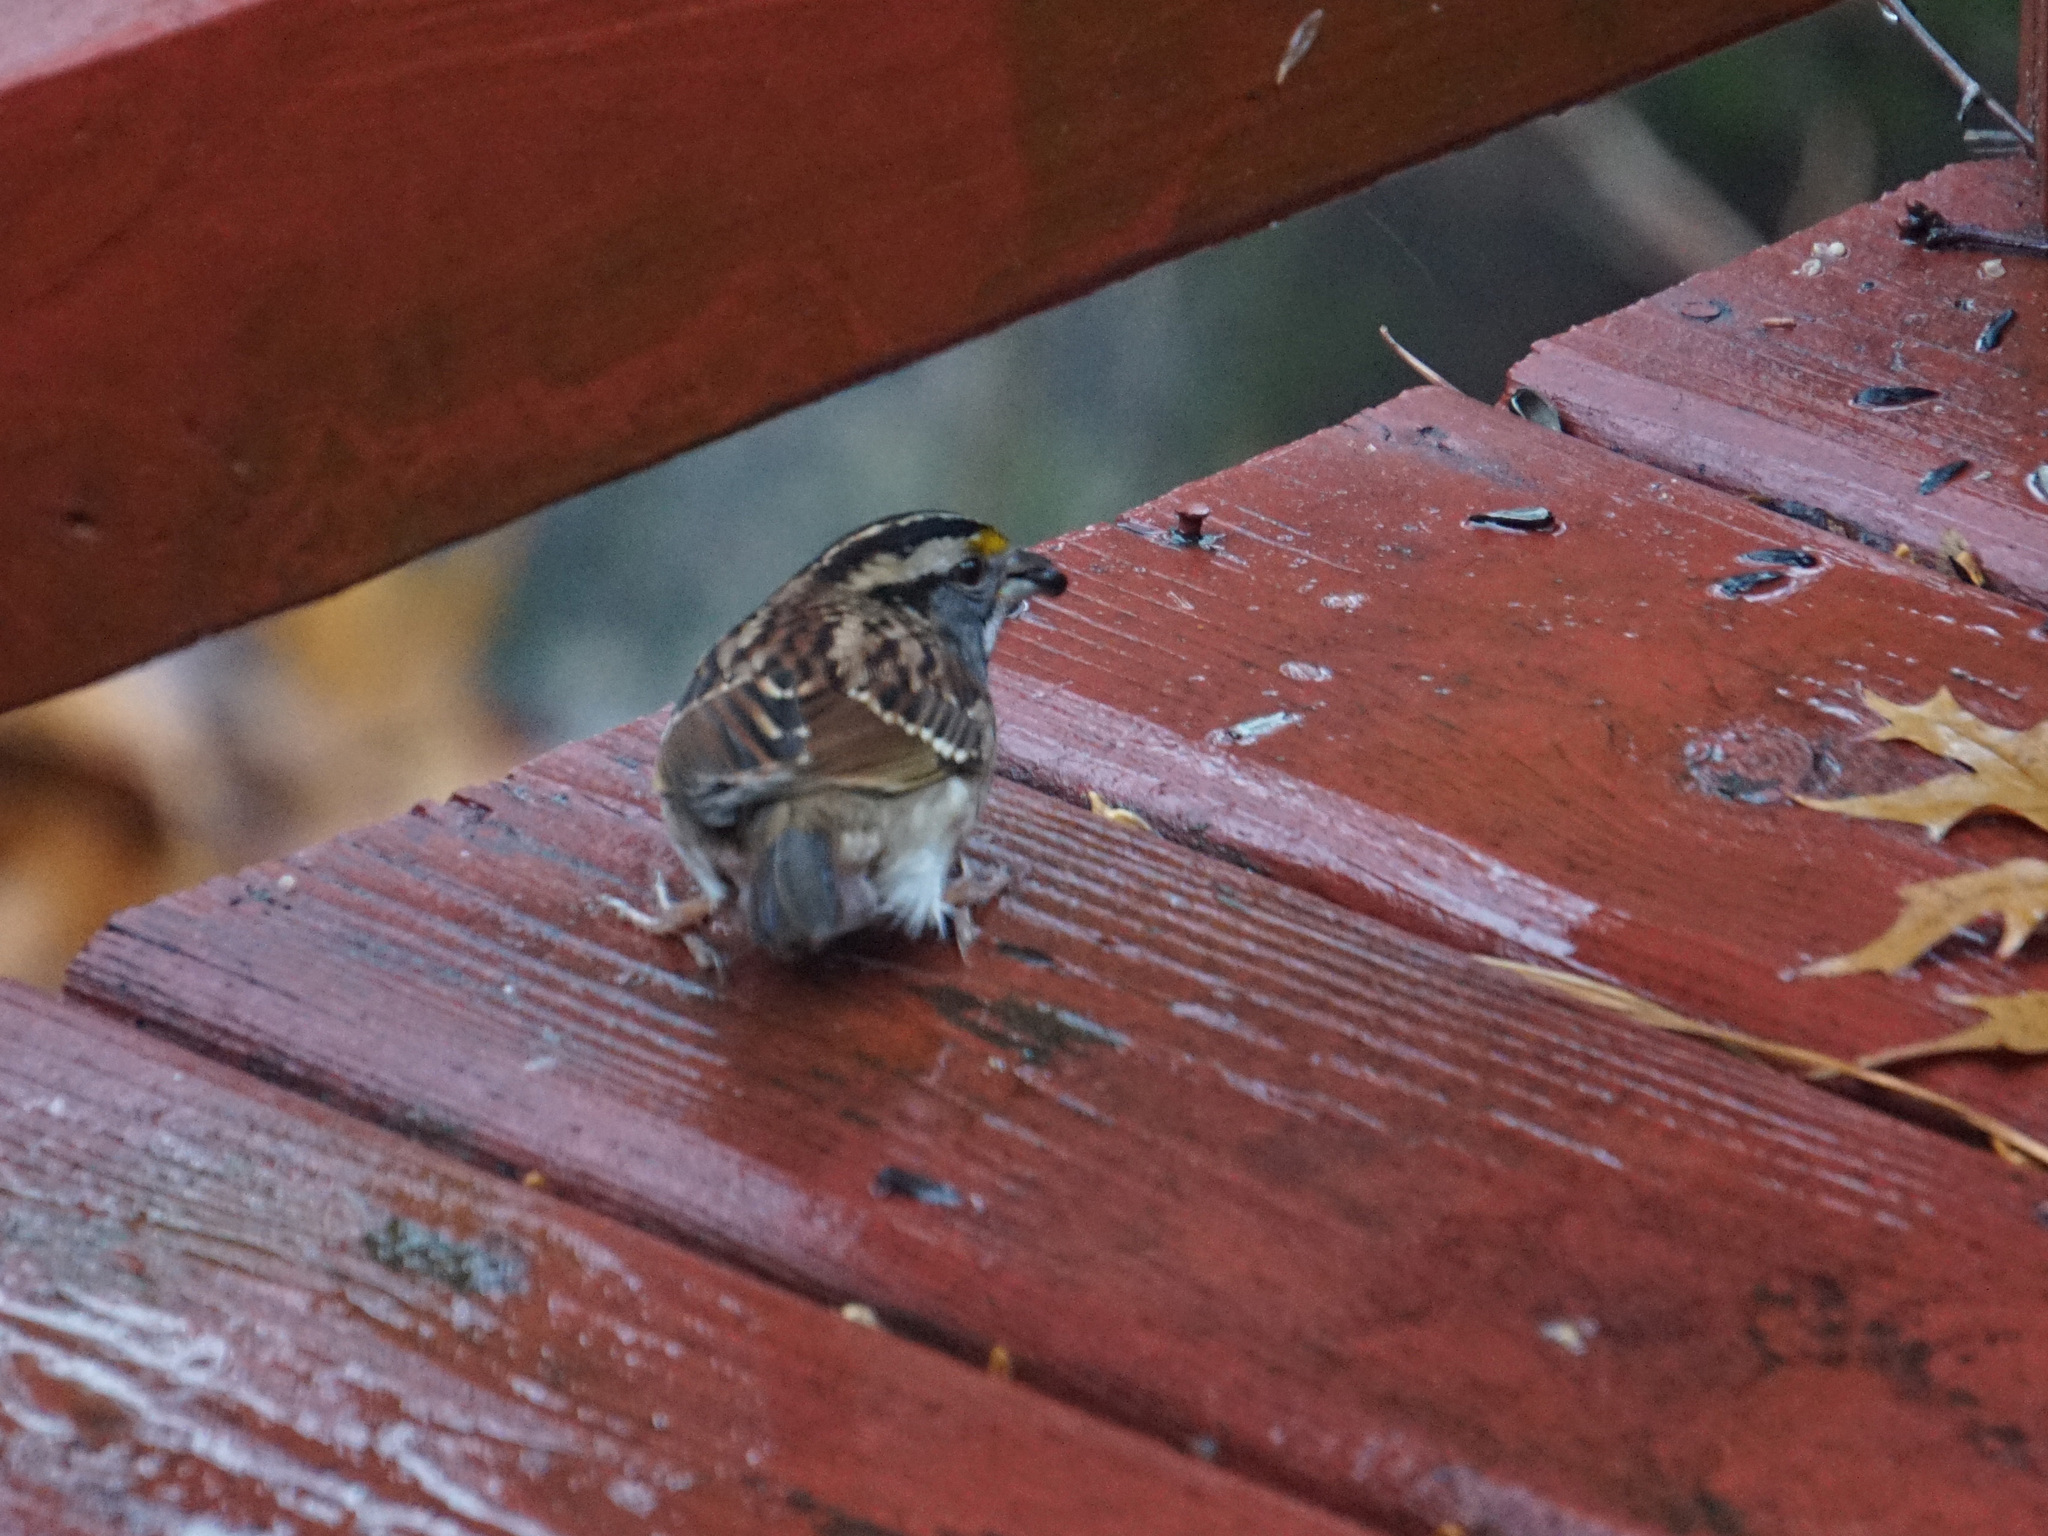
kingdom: Animalia
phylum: Chordata
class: Aves
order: Passeriformes
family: Passerellidae
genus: Zonotrichia
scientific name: Zonotrichia albicollis
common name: White-throated sparrow
